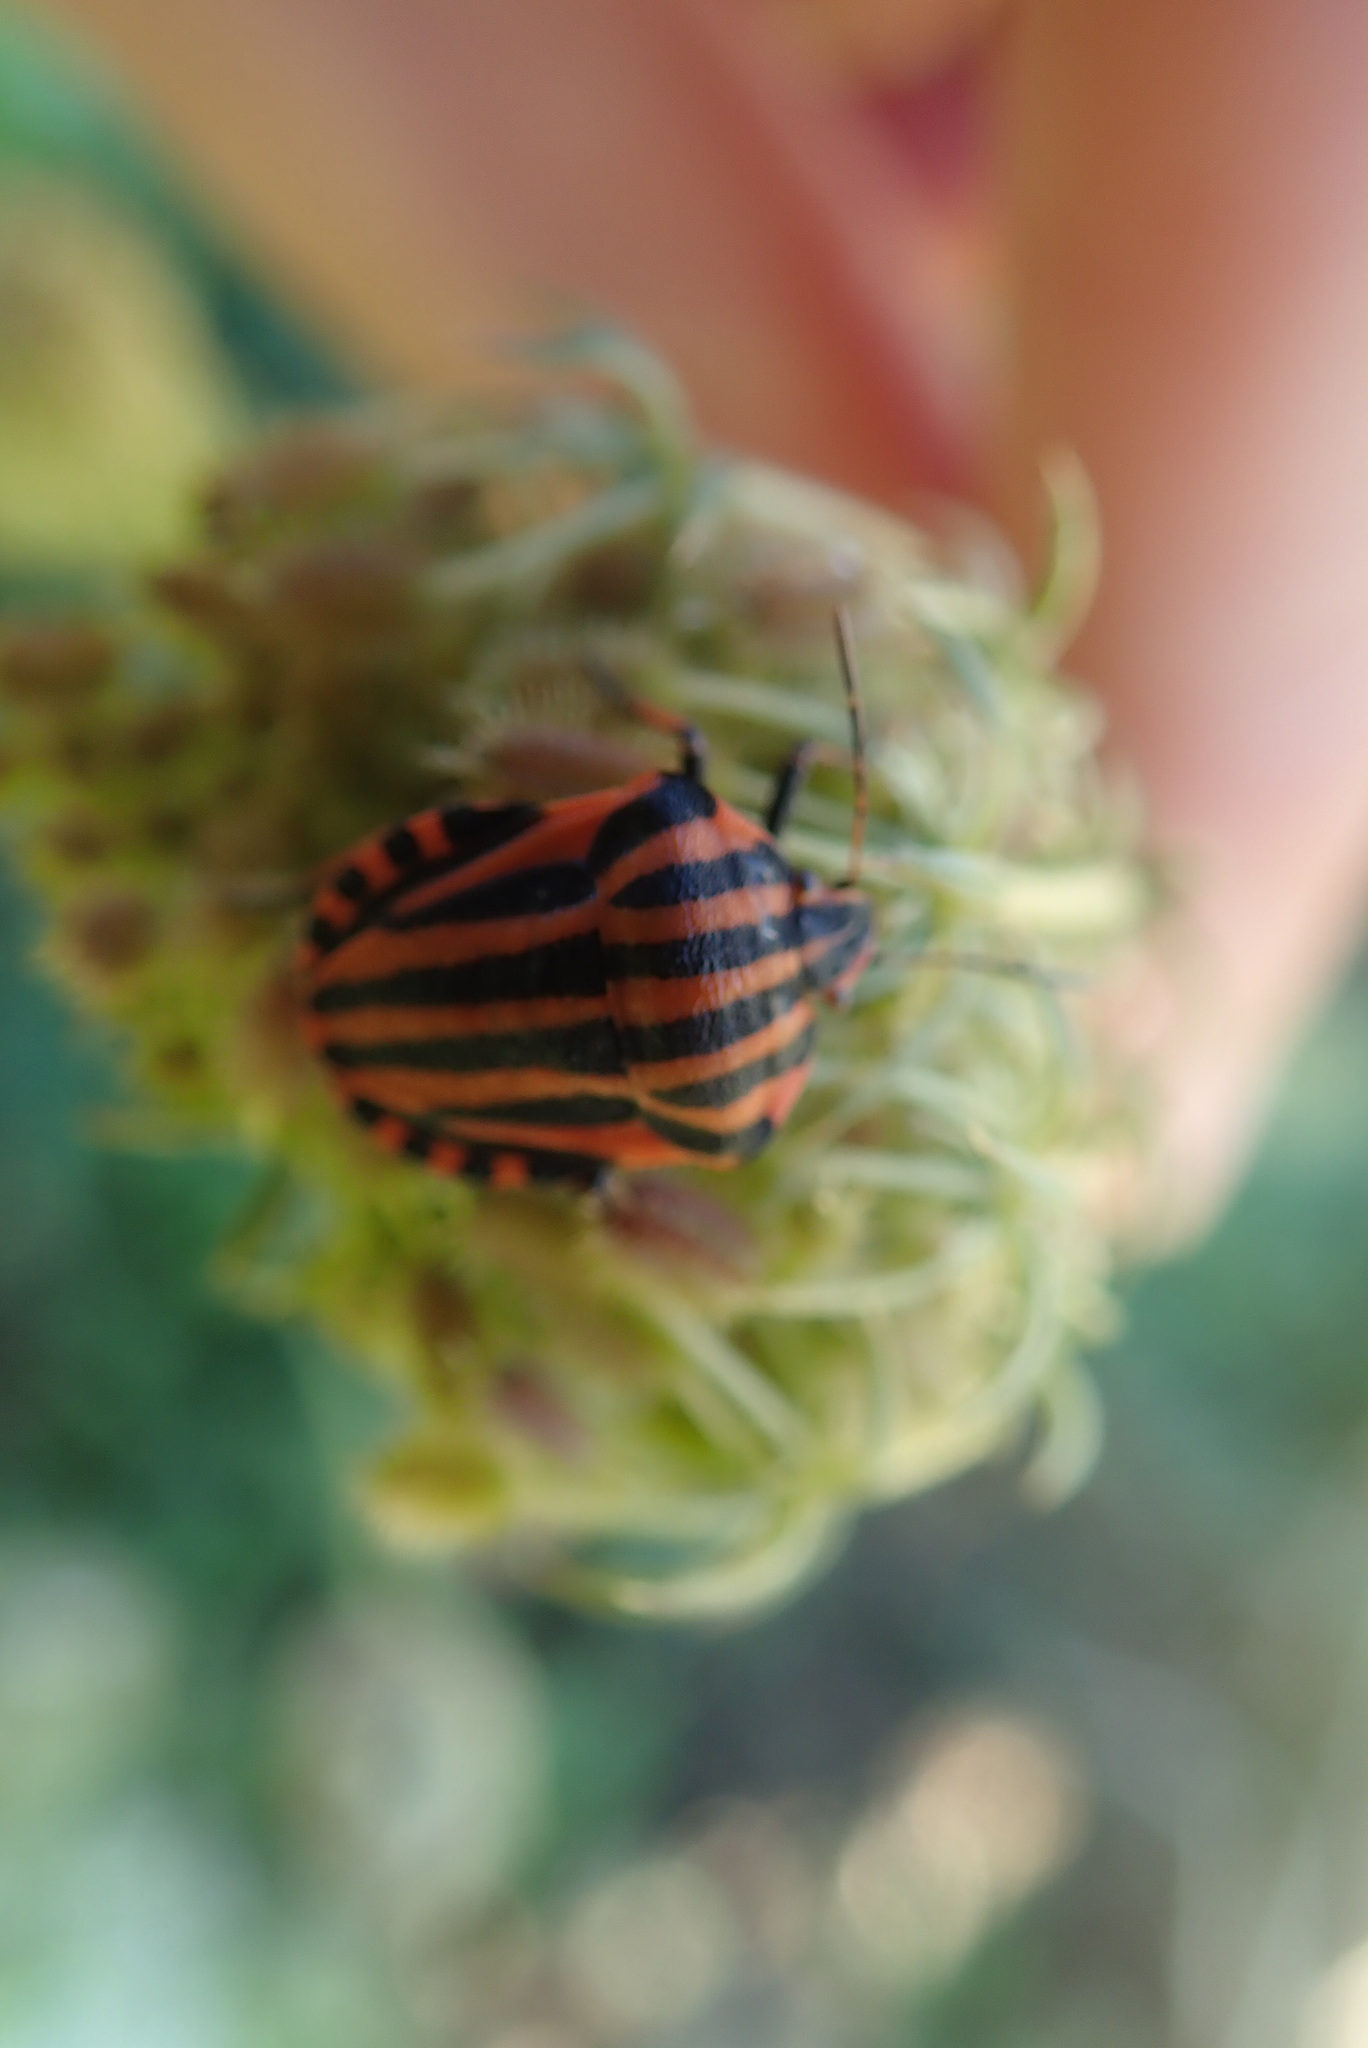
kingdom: Animalia
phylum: Arthropoda
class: Insecta
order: Hemiptera
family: Pentatomidae
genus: Graphosoma
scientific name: Graphosoma italicum
